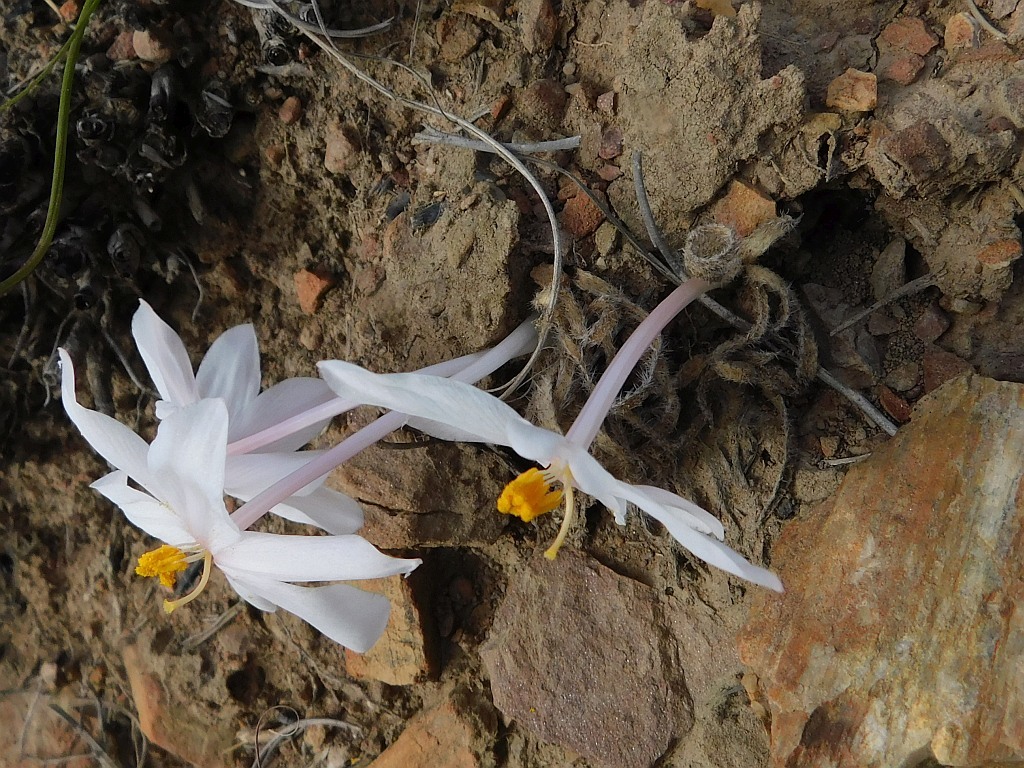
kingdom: Plantae
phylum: Tracheophyta
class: Liliopsida
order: Asparagales
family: Amaryllidaceae
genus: Gethyllis
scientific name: Gethyllis villosa
